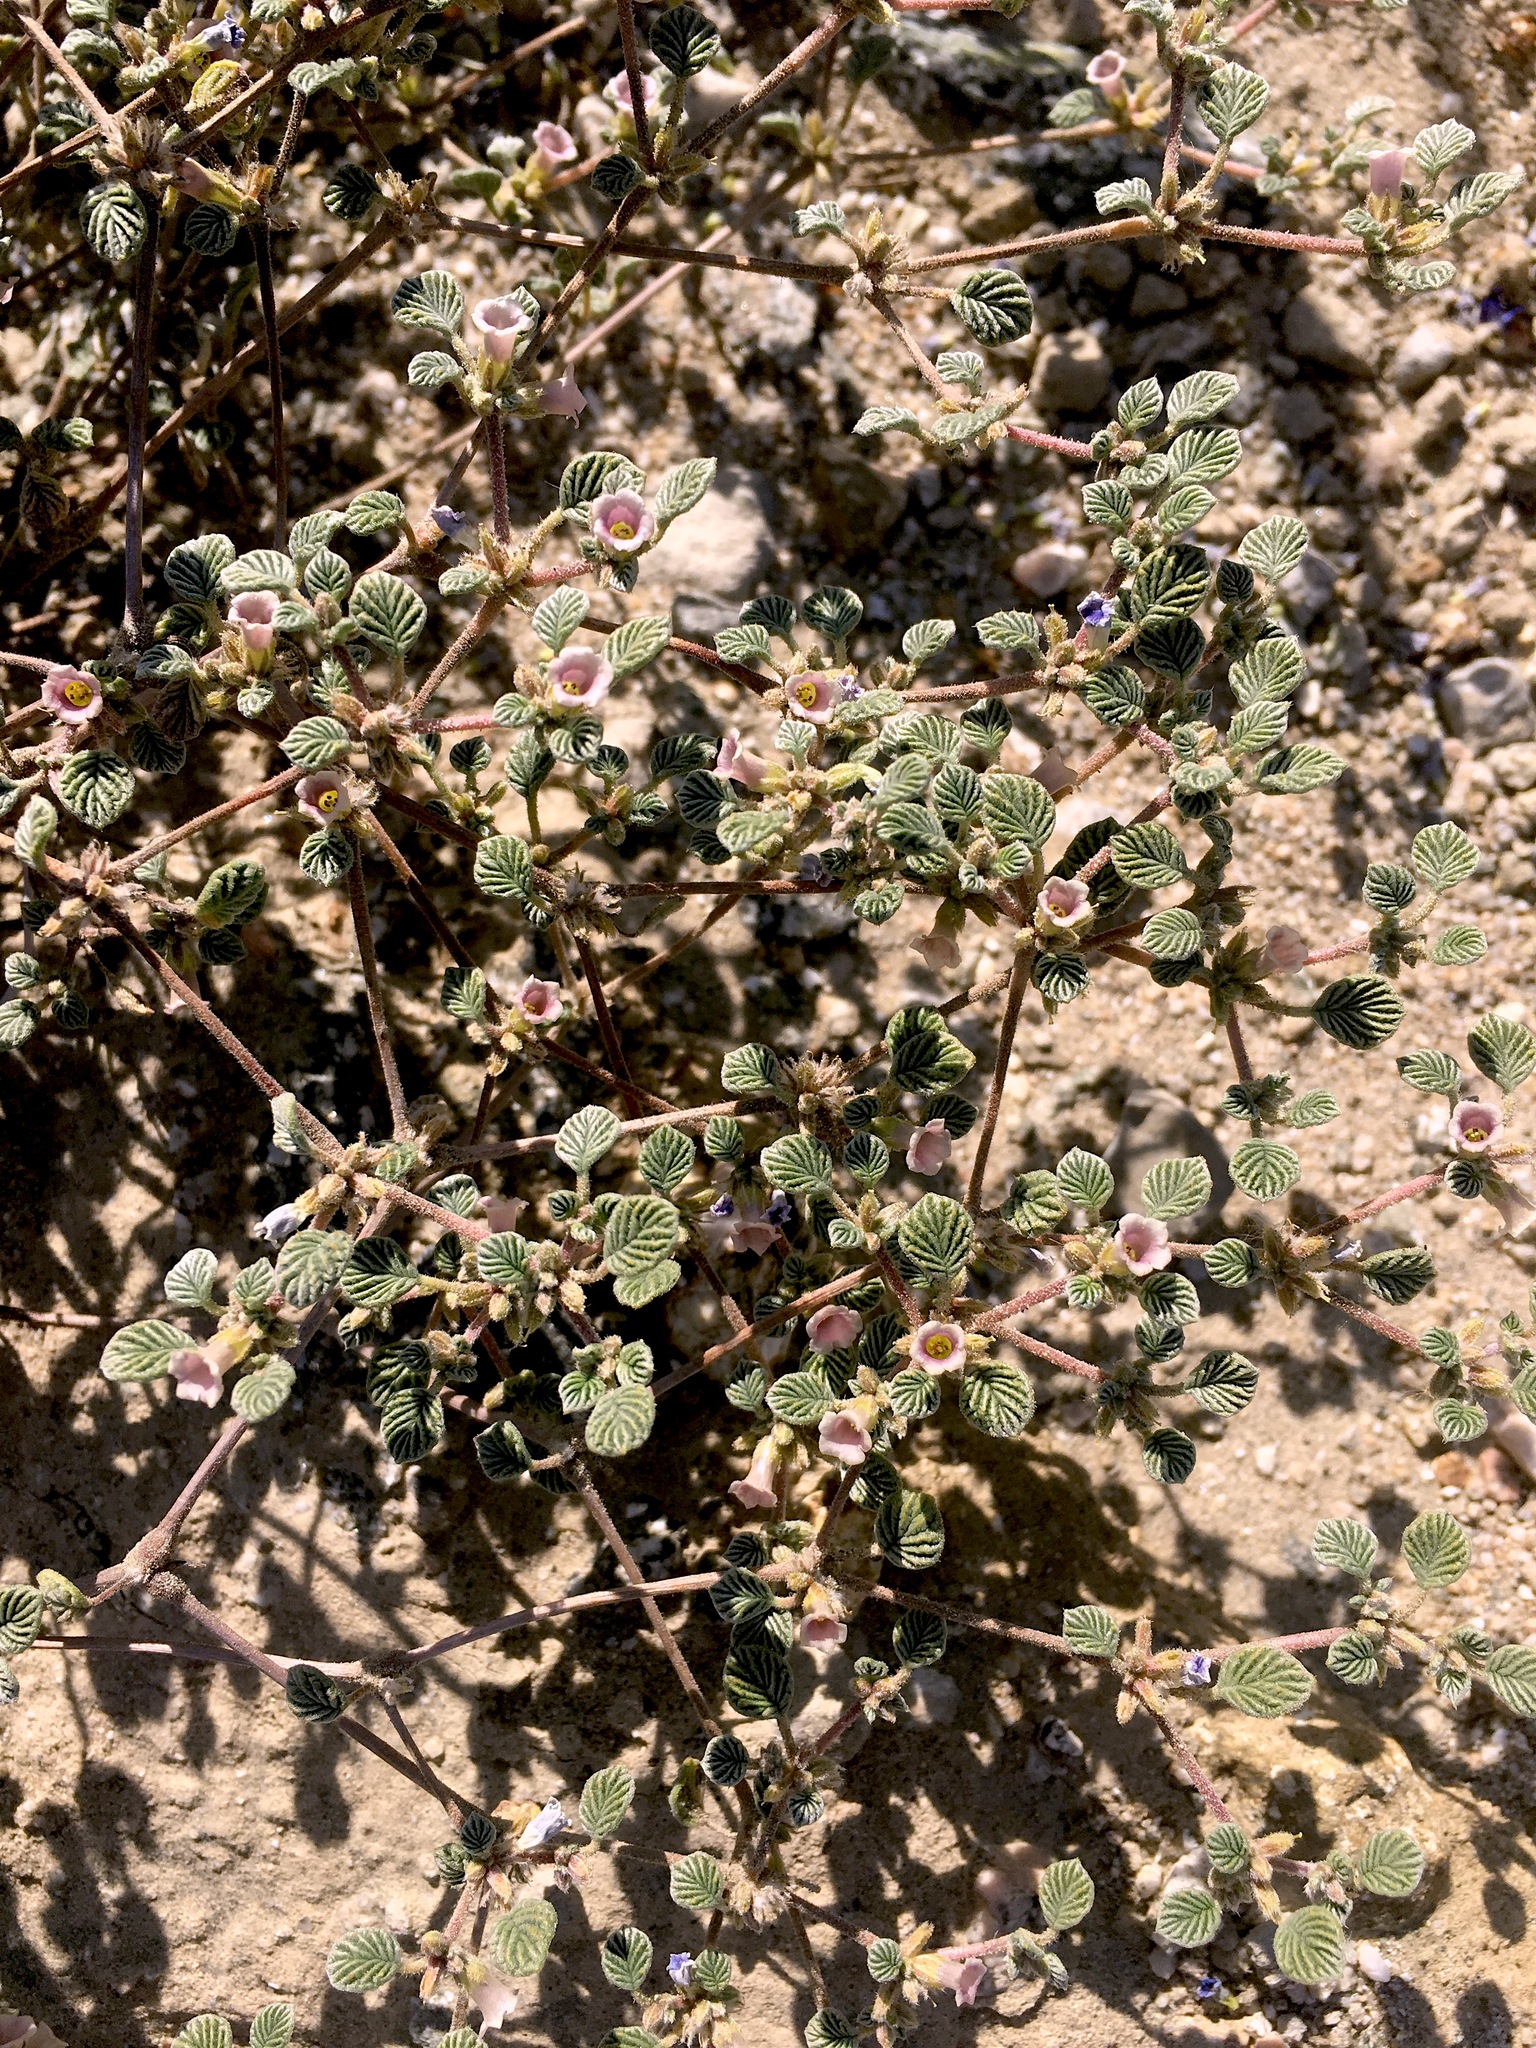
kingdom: Plantae
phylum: Tracheophyta
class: Magnoliopsida
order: Boraginales
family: Ehretiaceae
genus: Tiquilia
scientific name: Tiquilia plicata
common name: Fan-leaf tiquilia
